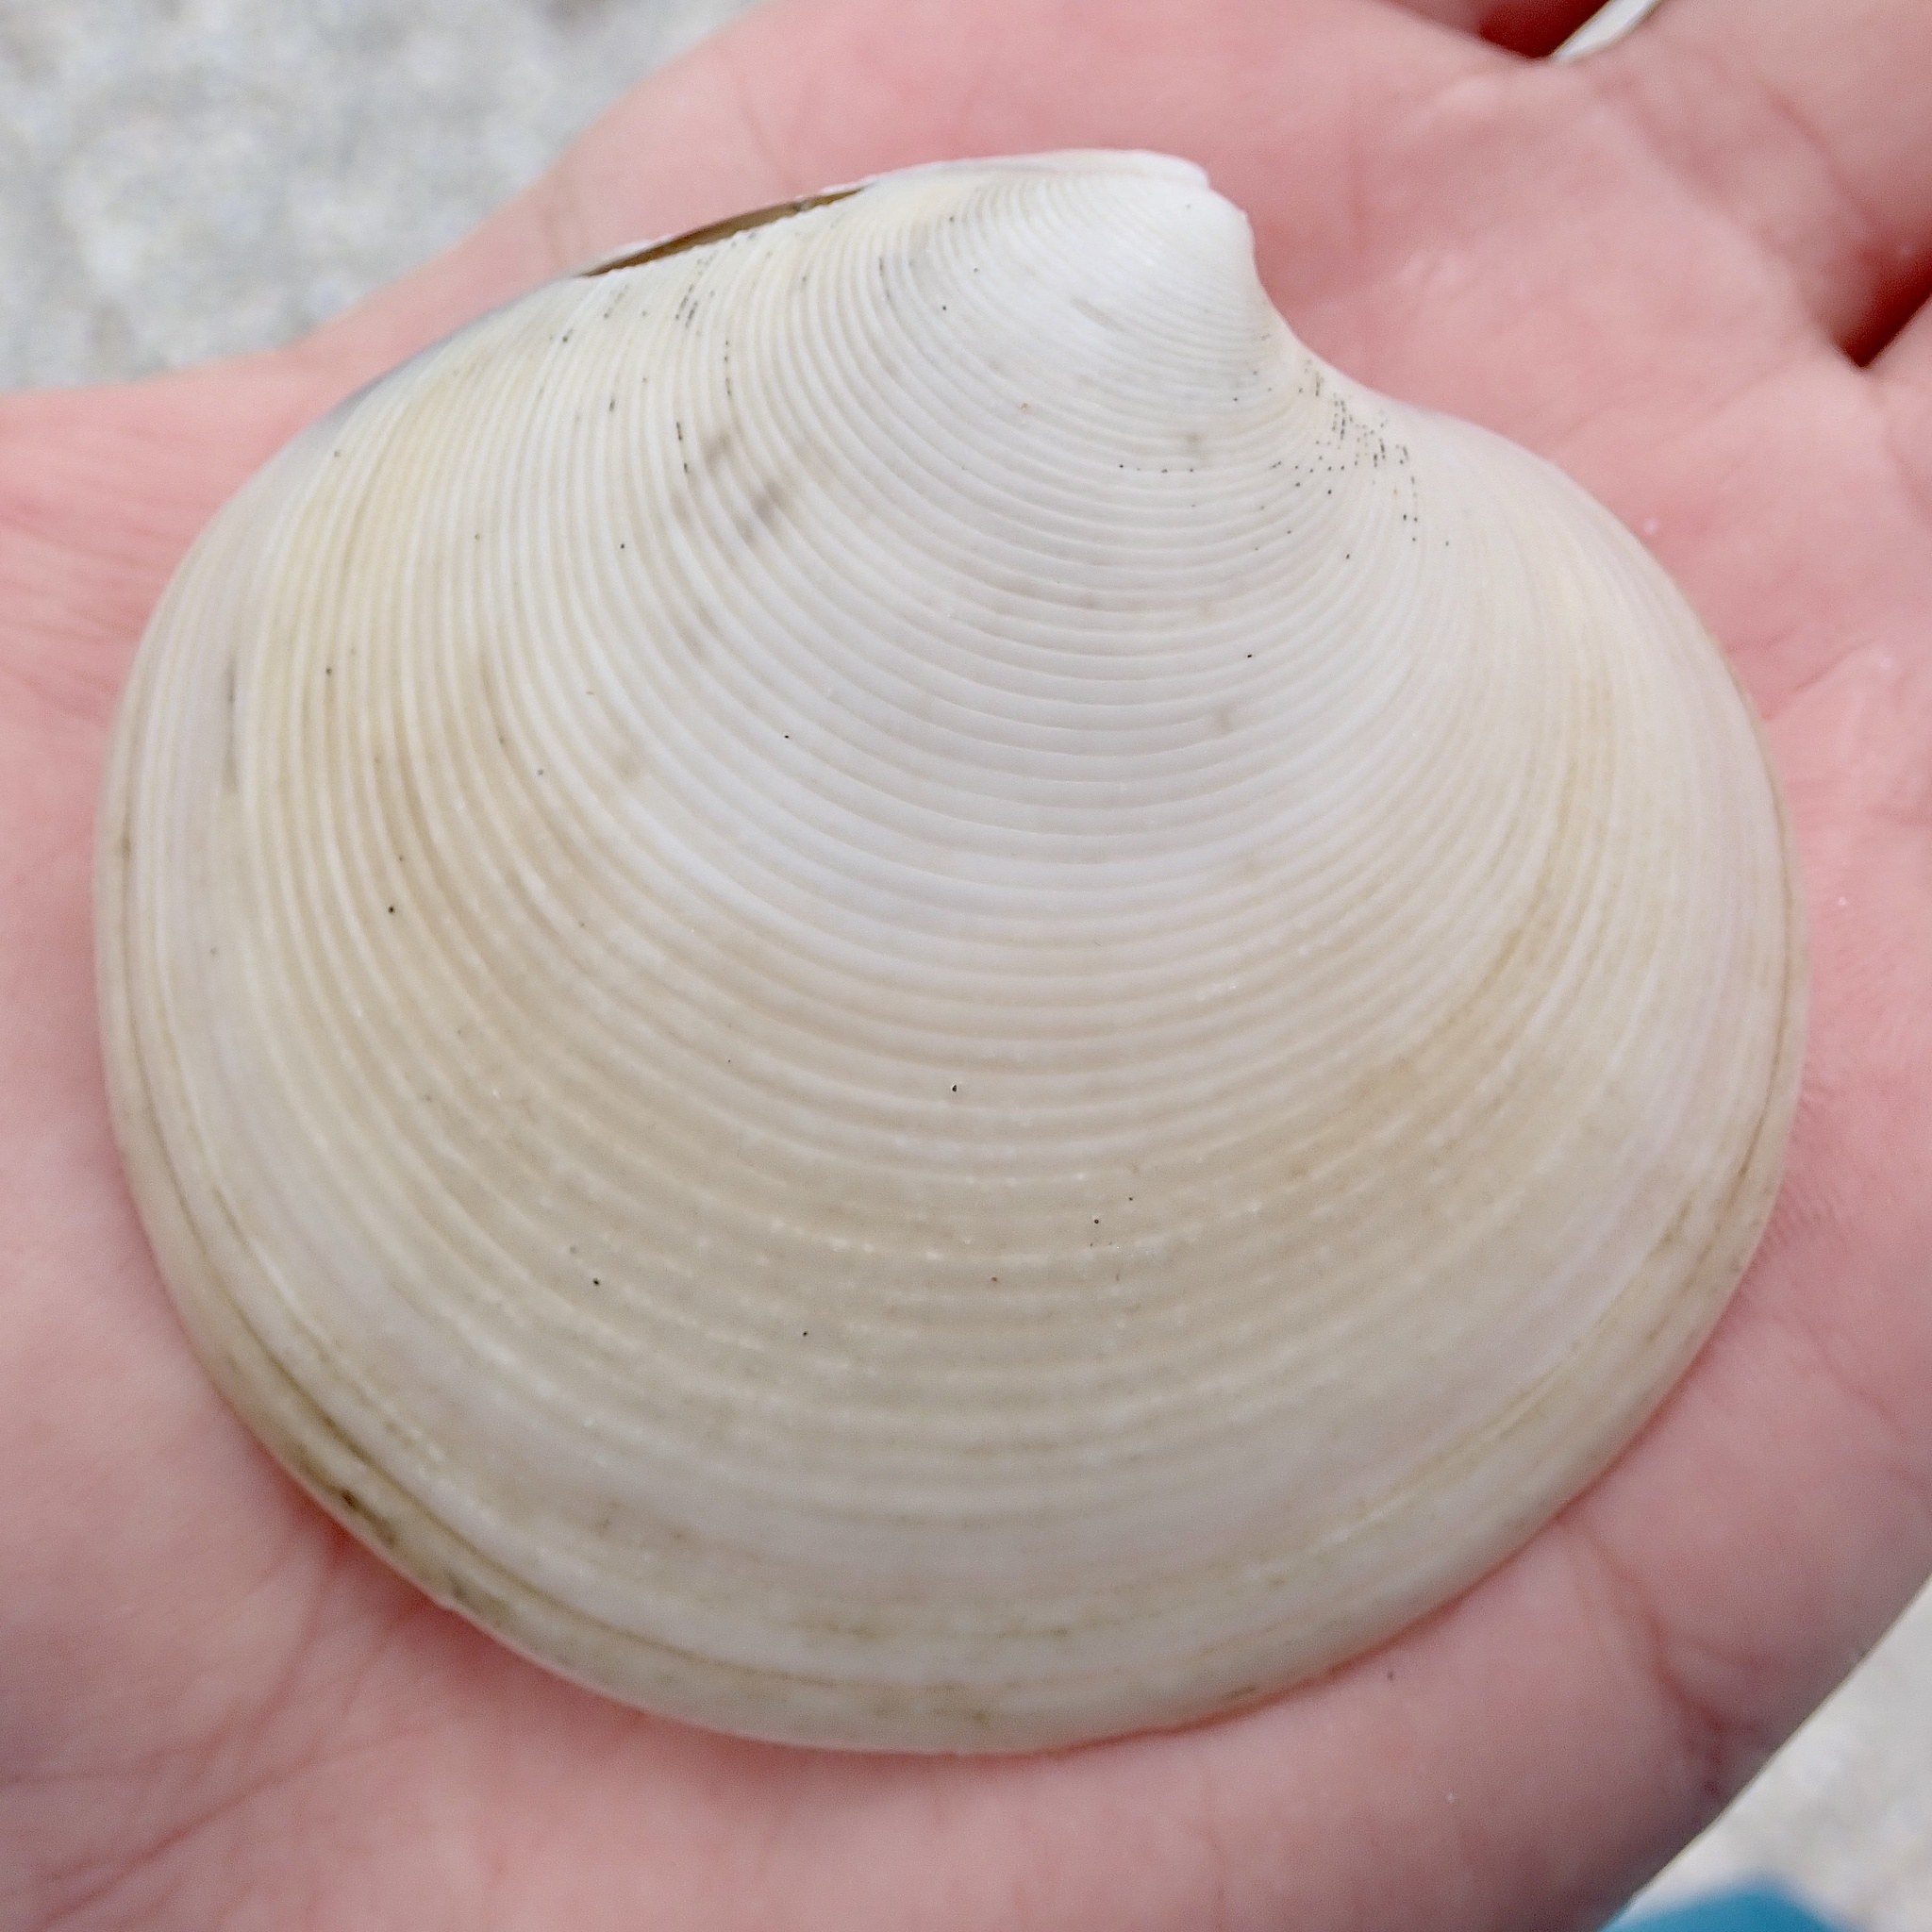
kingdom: Animalia
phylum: Mollusca
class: Bivalvia
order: Venerida
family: Veneridae
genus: Dosinia
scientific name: Dosinia concentrica
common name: Elegant dosinia
